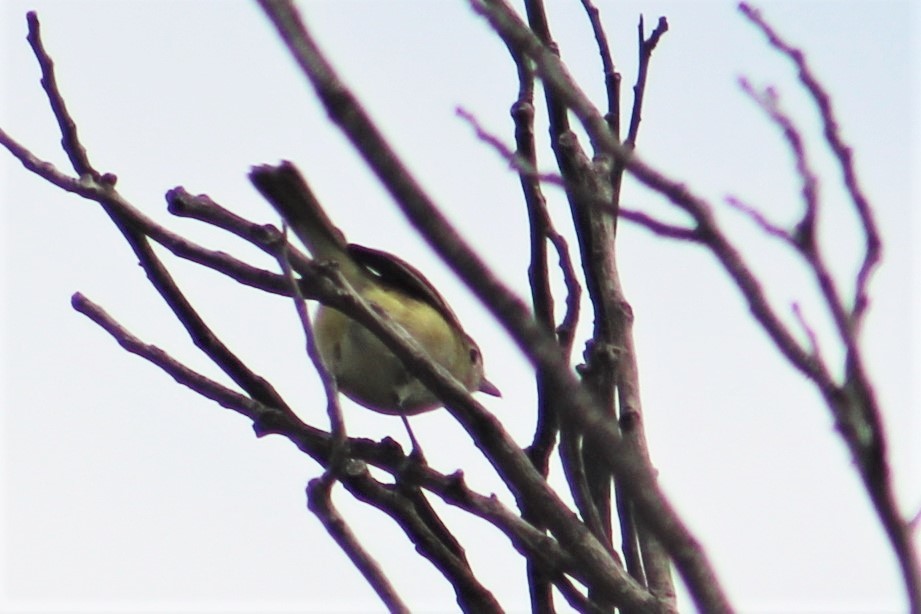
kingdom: Animalia
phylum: Chordata
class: Aves
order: Passeriformes
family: Vireonidae
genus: Vireo
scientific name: Vireo bellii
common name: Bell's vireo
